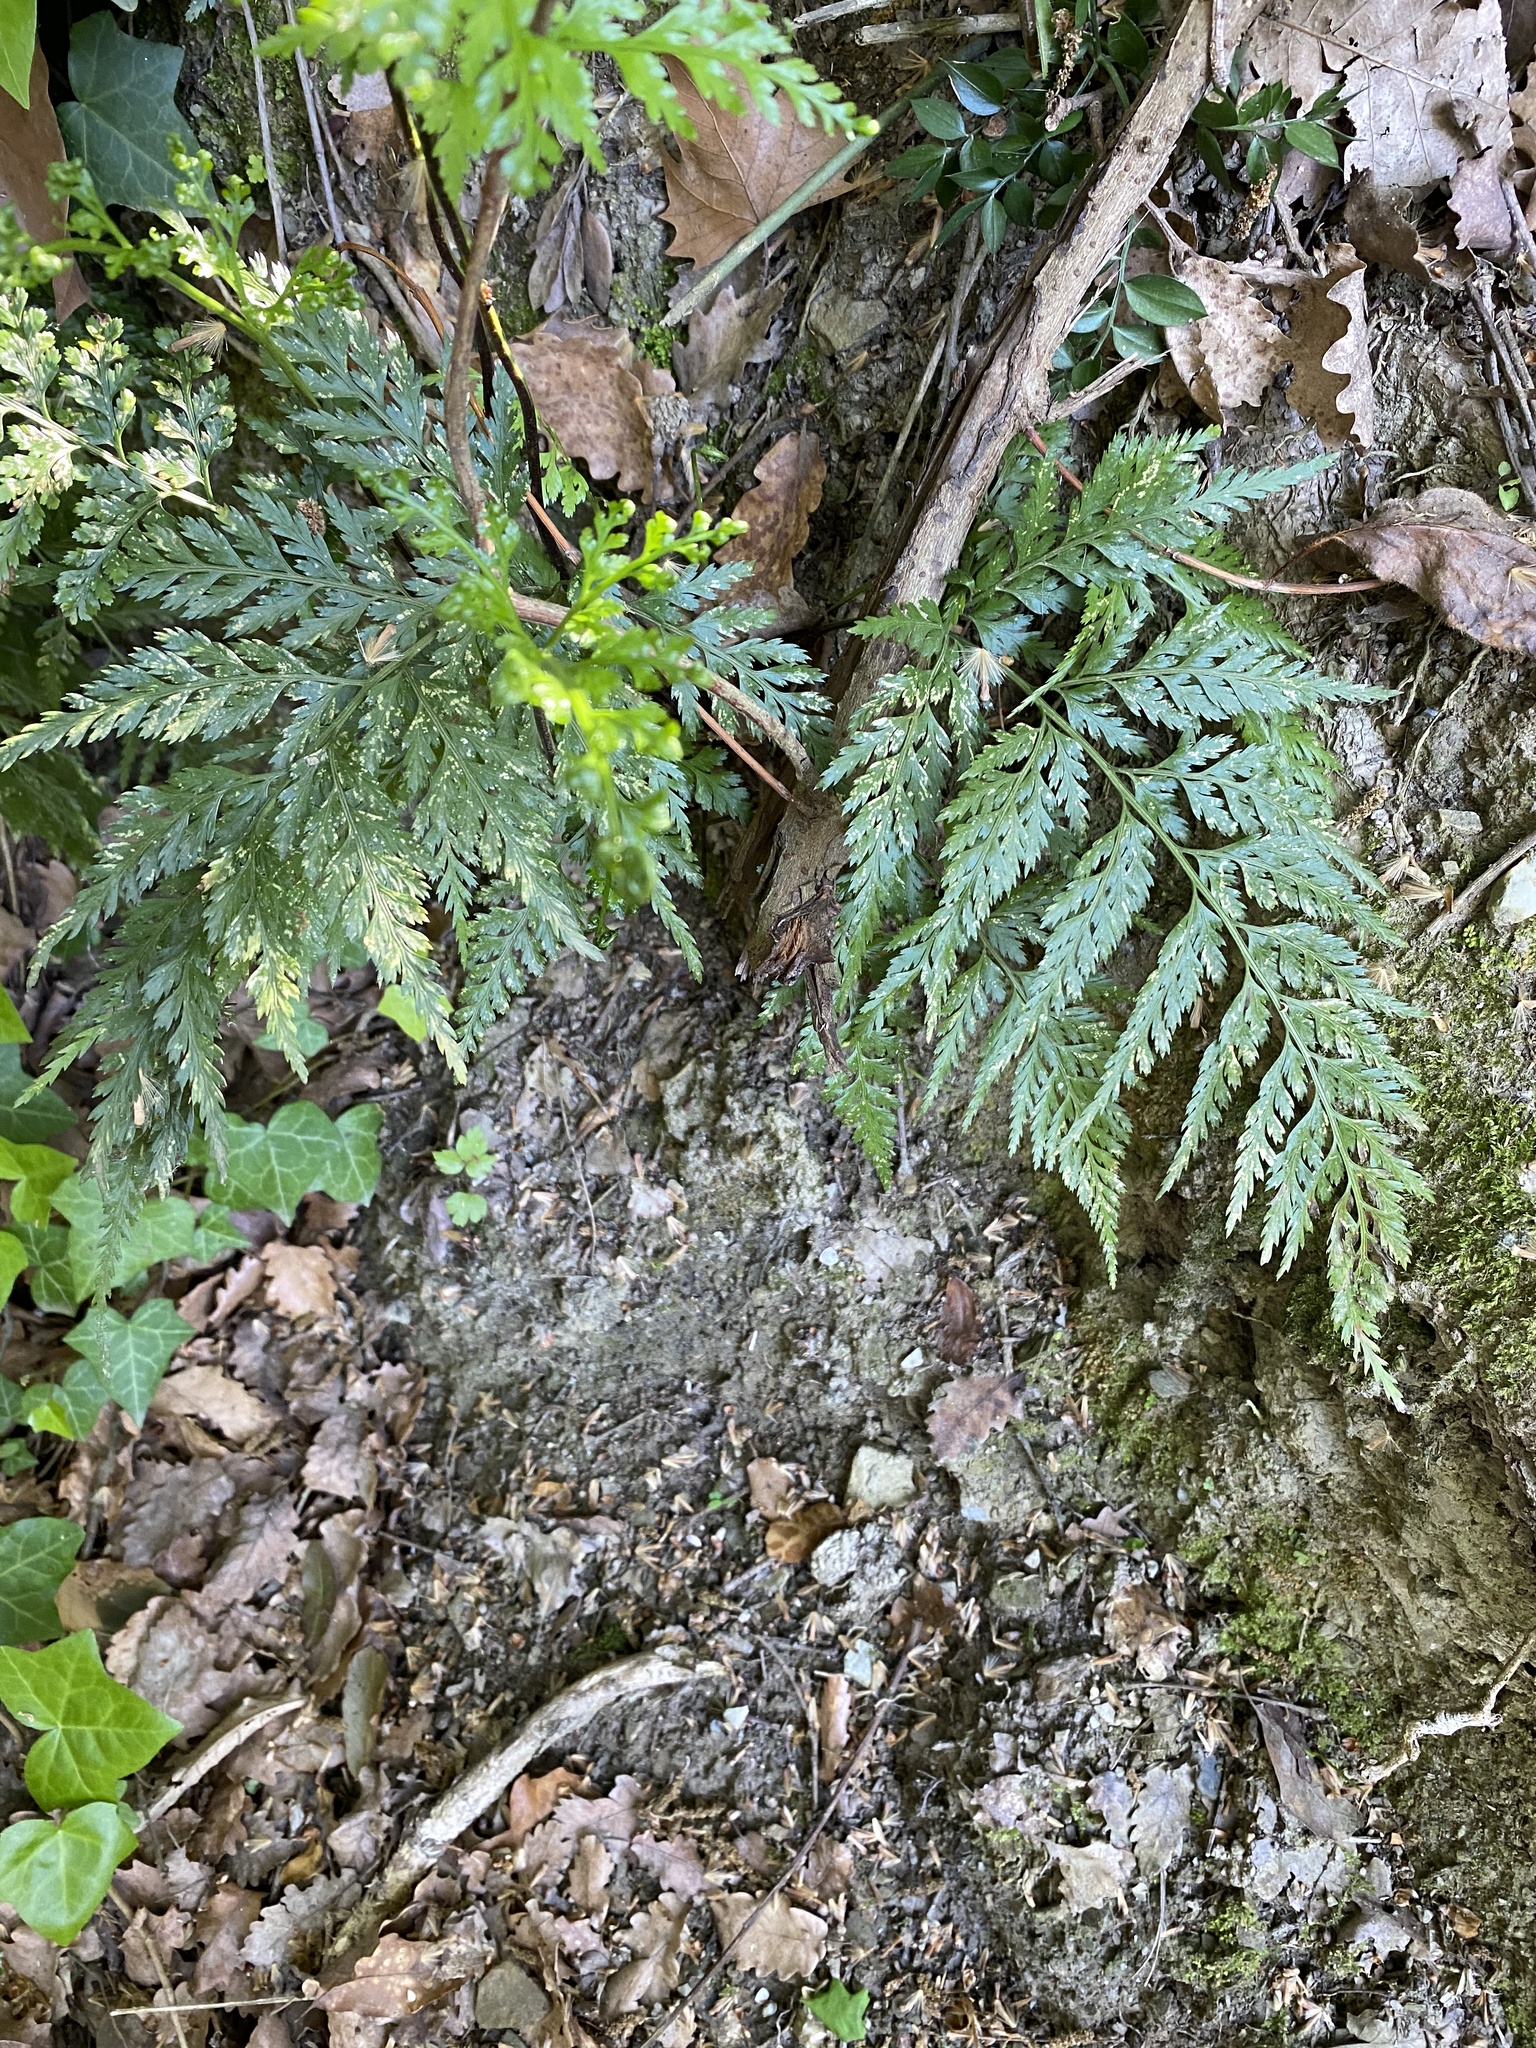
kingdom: Plantae
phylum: Tracheophyta
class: Polypodiopsida
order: Polypodiales
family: Aspleniaceae
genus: Asplenium
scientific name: Asplenium onopteris
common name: Irish spleenwort
